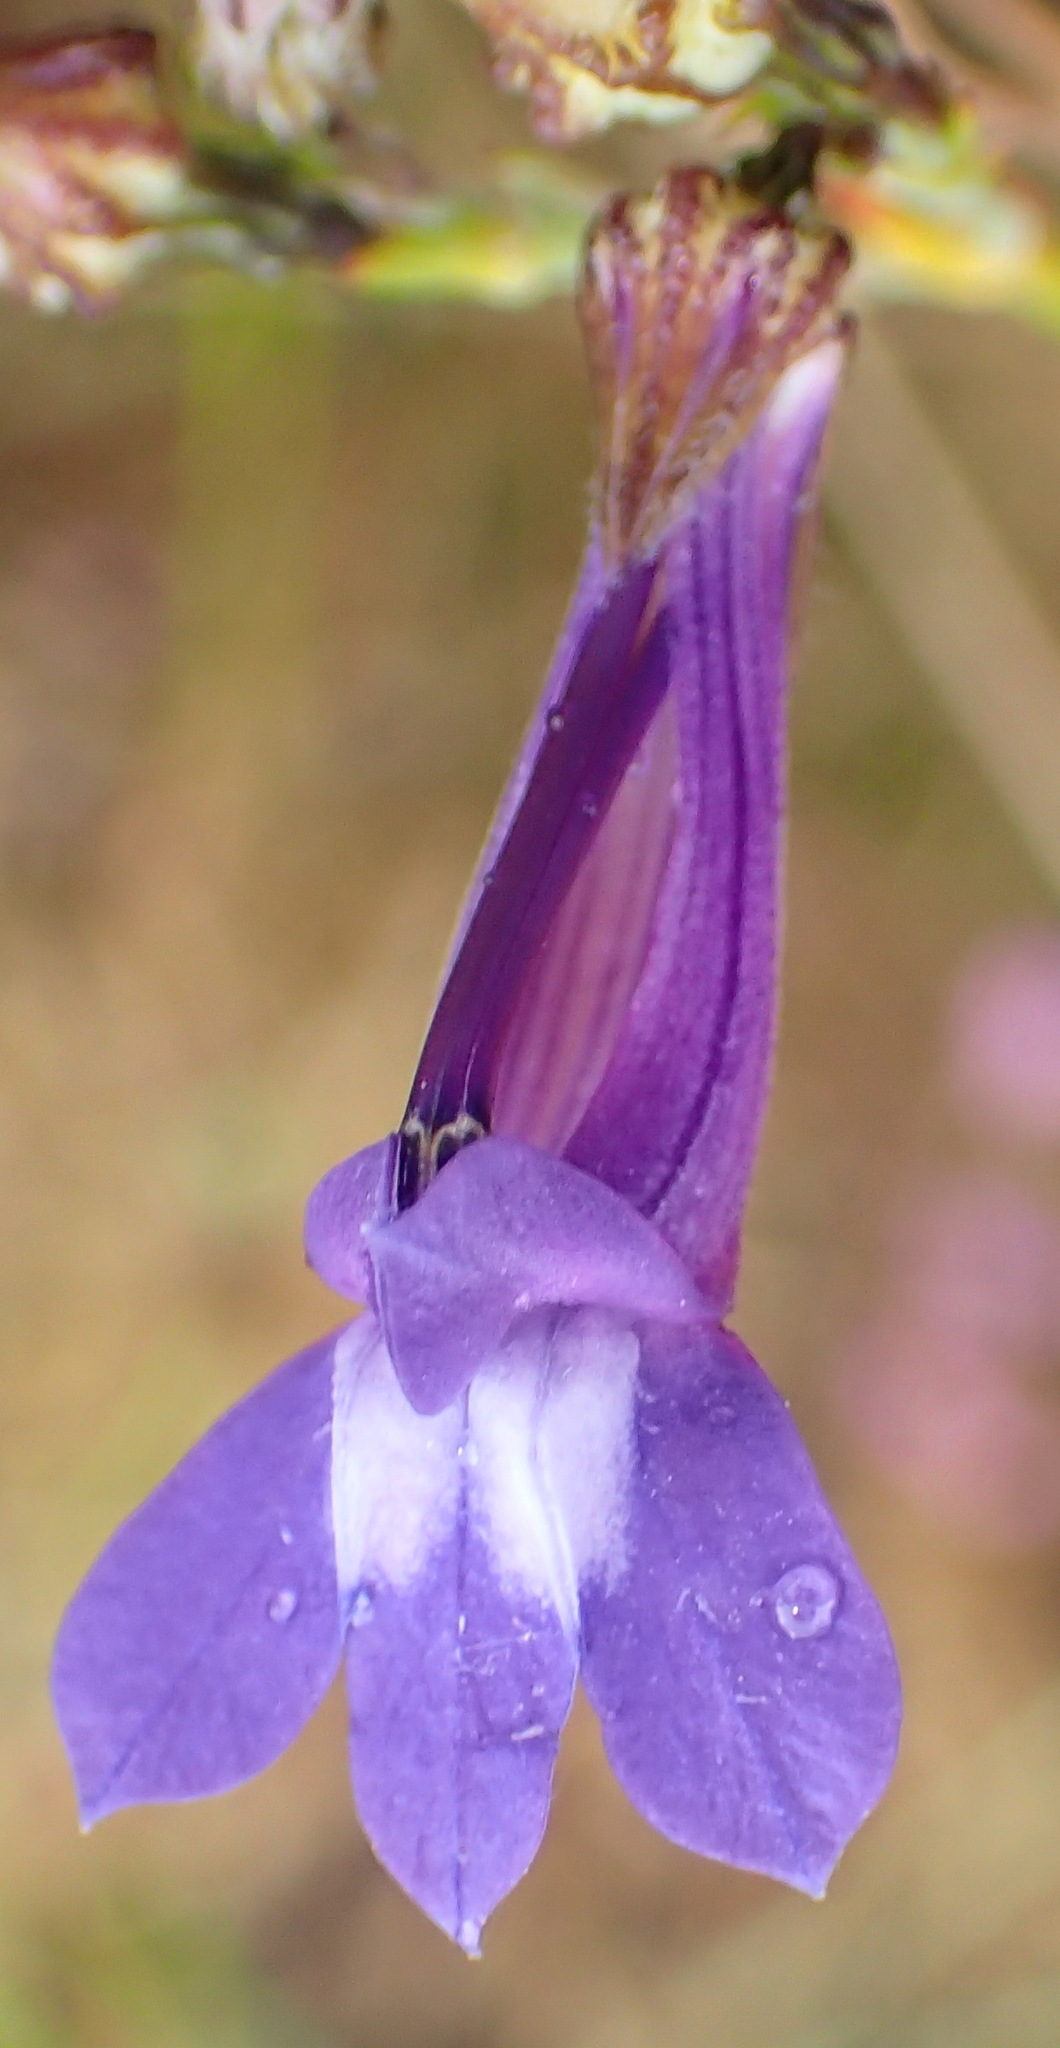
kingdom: Plantae
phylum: Tracheophyta
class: Magnoliopsida
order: Asterales
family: Campanulaceae
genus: Lobelia
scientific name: Lobelia linearis
